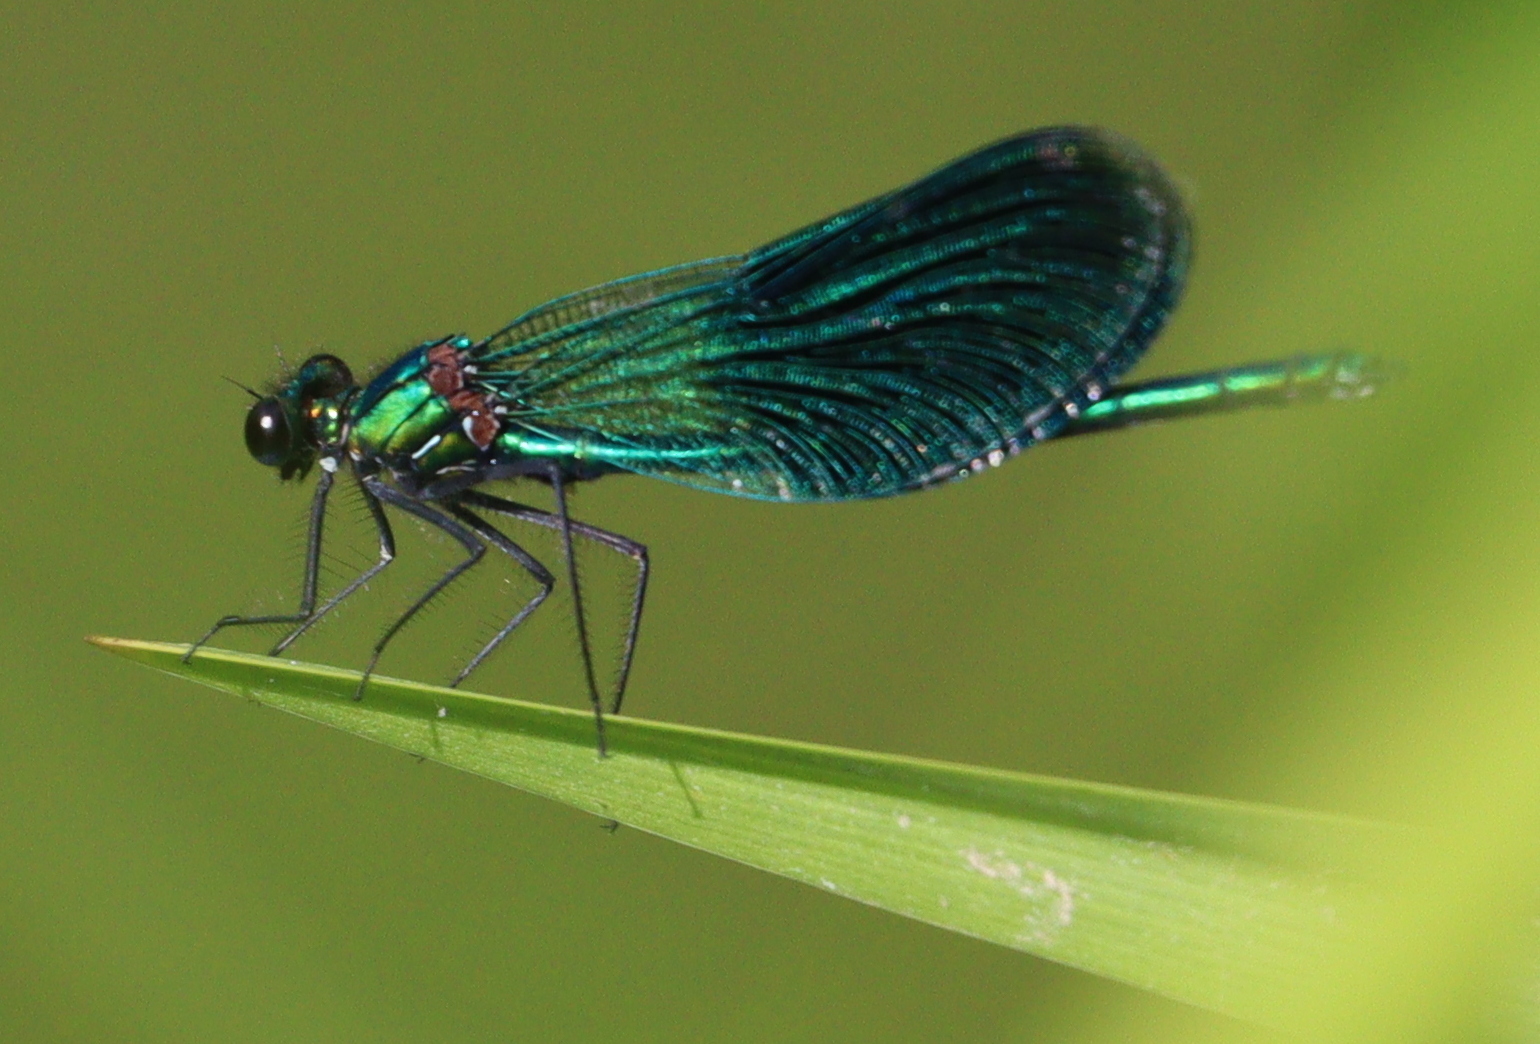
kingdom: Animalia
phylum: Arthropoda
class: Insecta
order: Odonata
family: Calopterygidae
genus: Calopteryx
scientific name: Calopteryx splendens
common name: Banded demoiselle
